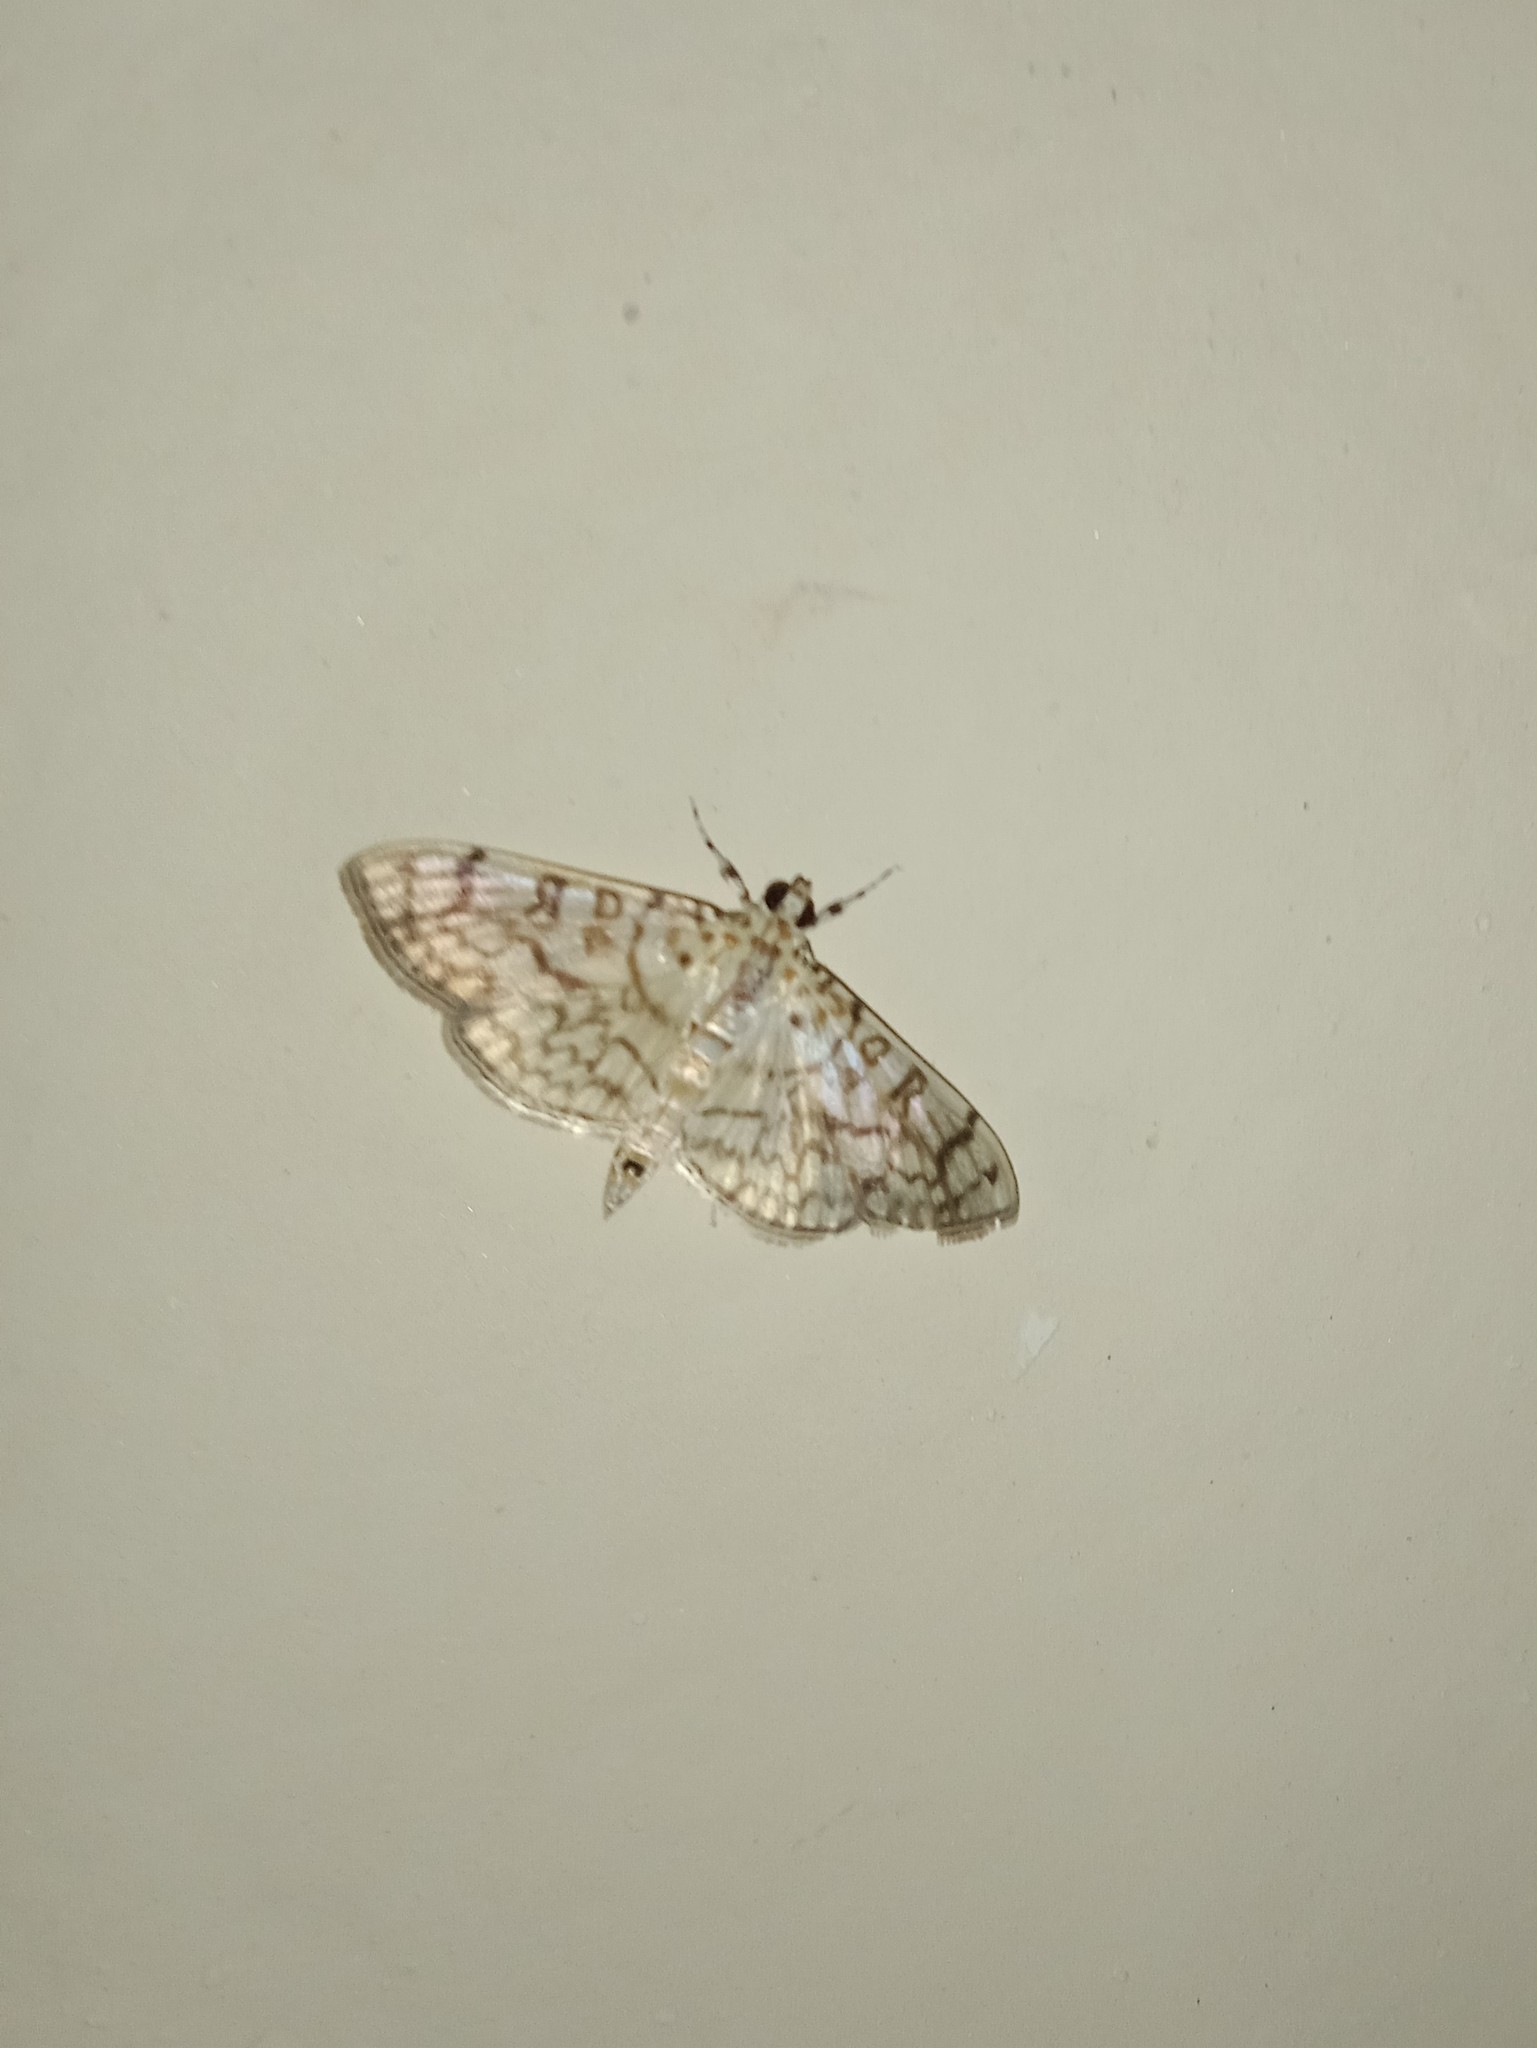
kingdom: Animalia
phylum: Arthropoda
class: Insecta
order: Lepidoptera
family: Crambidae
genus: Haritalodes
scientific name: Haritalodes derogata
